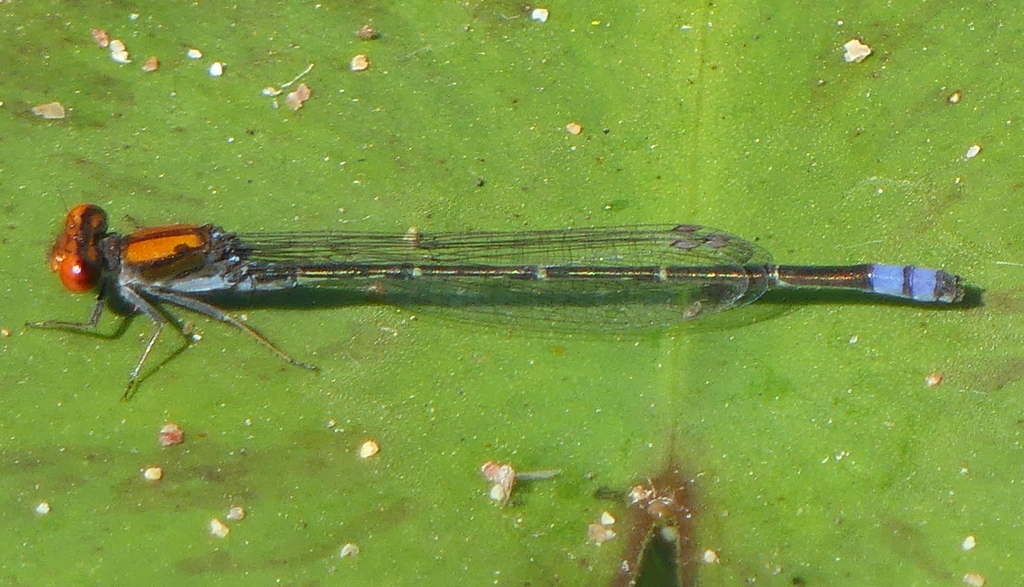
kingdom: Animalia
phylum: Arthropoda
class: Insecta
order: Odonata
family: Coenagrionidae
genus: Pseudagrion
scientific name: Pseudagrion massaicum
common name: Masai sprite
